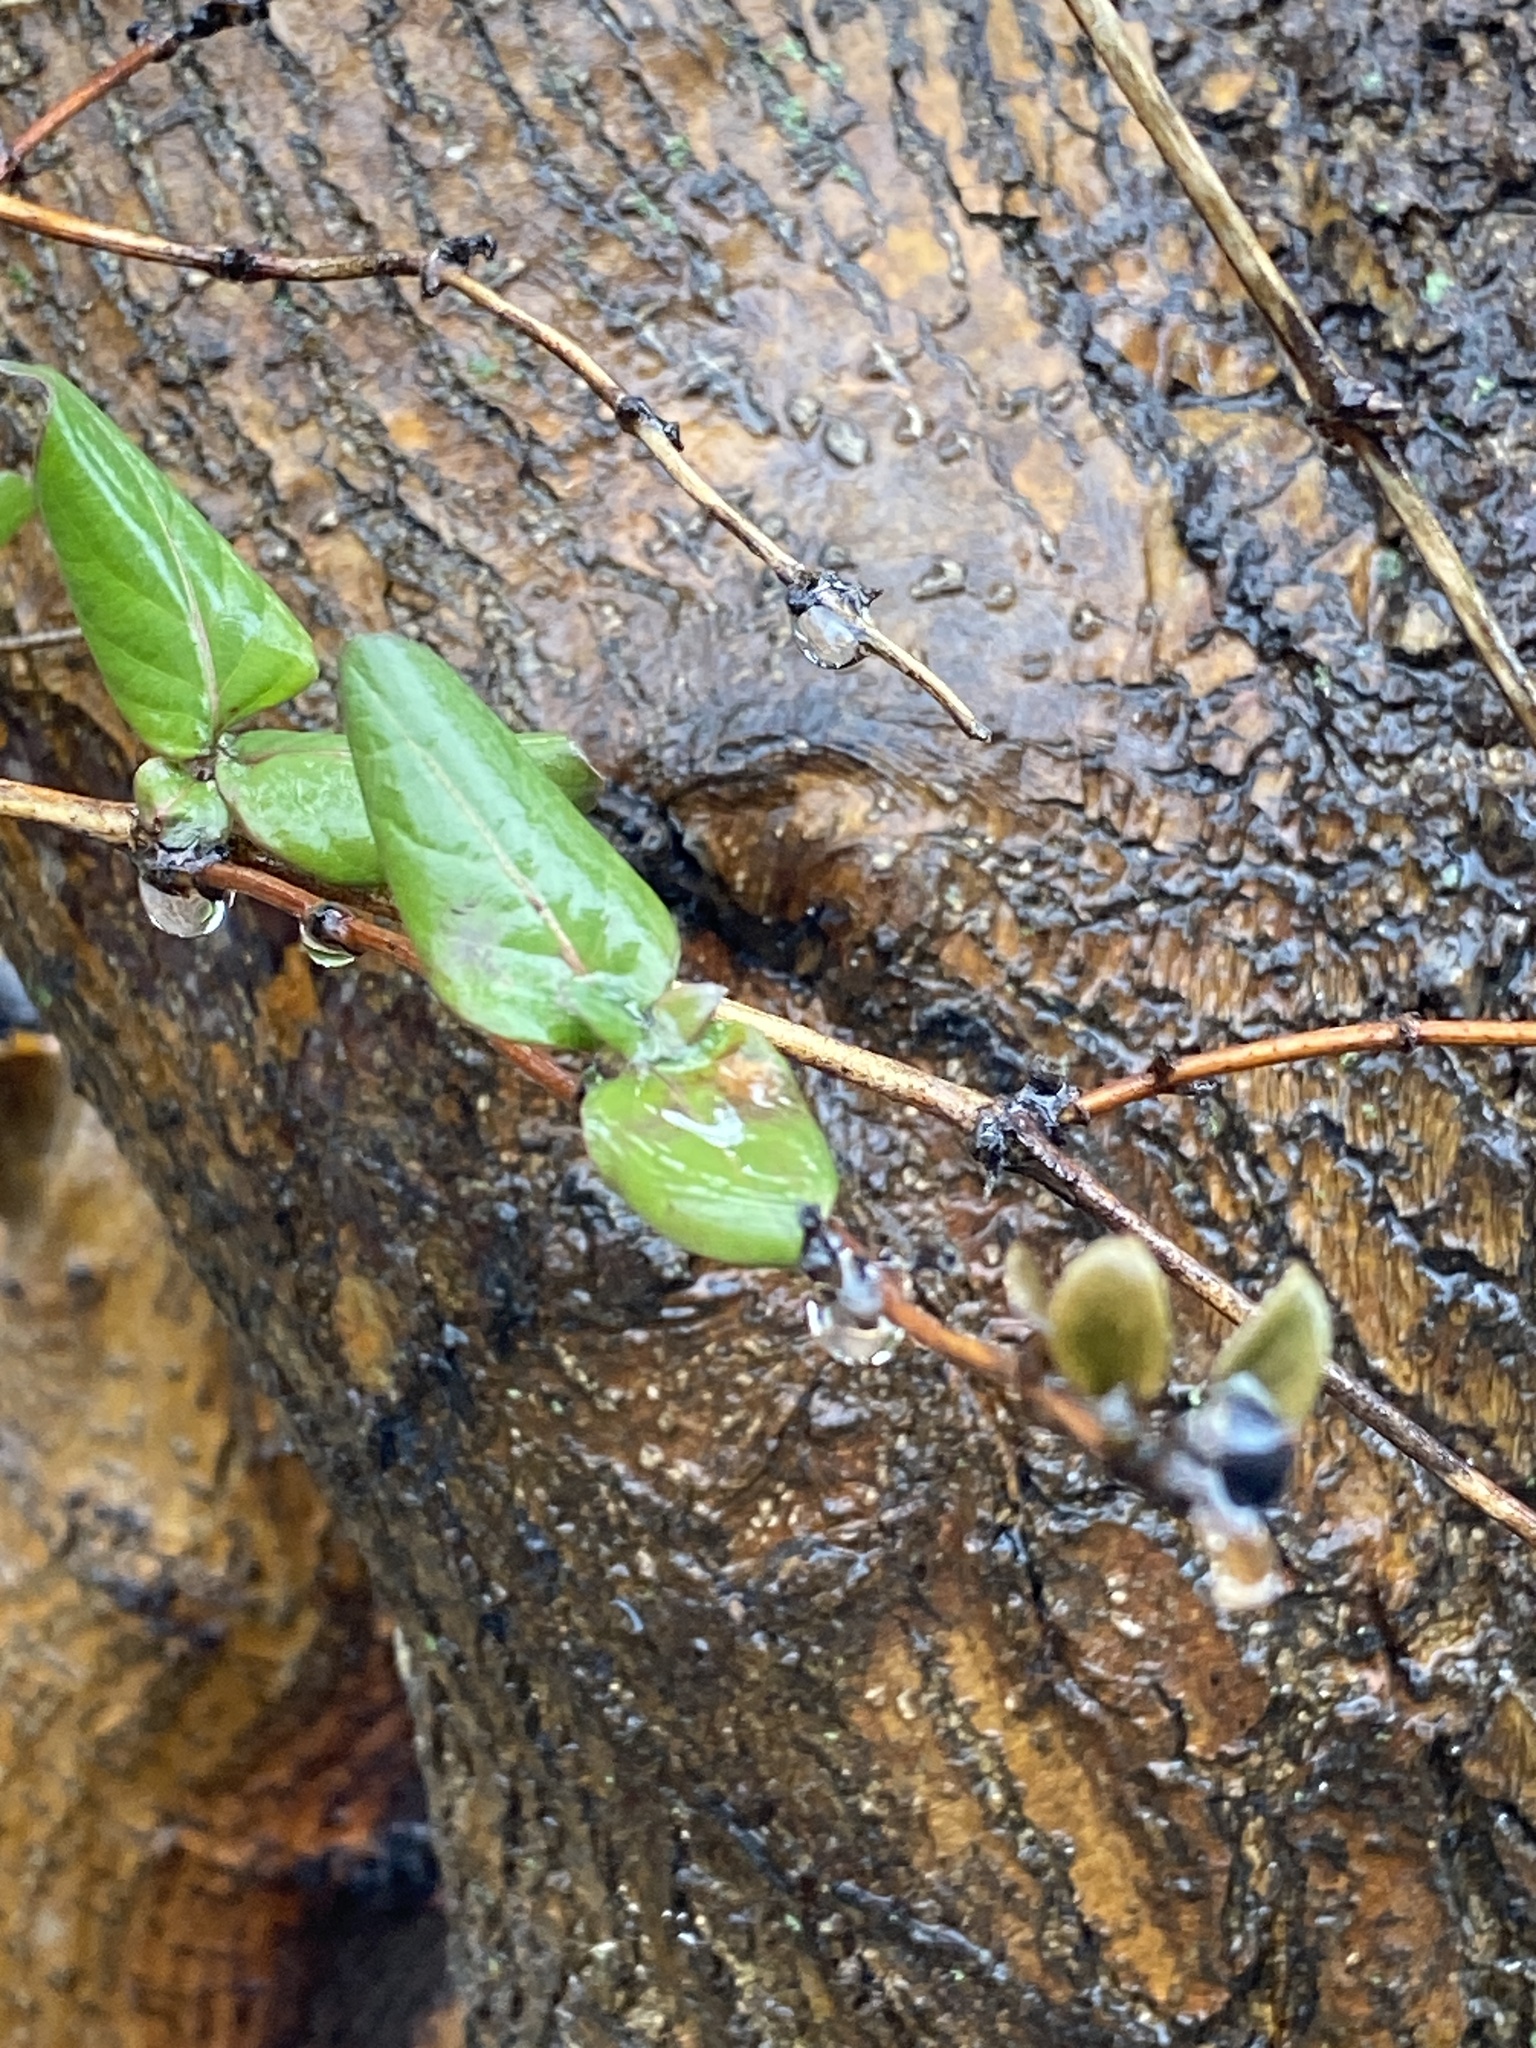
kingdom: Plantae
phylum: Tracheophyta
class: Magnoliopsida
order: Dipsacales
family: Caprifoliaceae
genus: Lonicera
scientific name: Lonicera japonica
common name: Japanese honeysuckle
